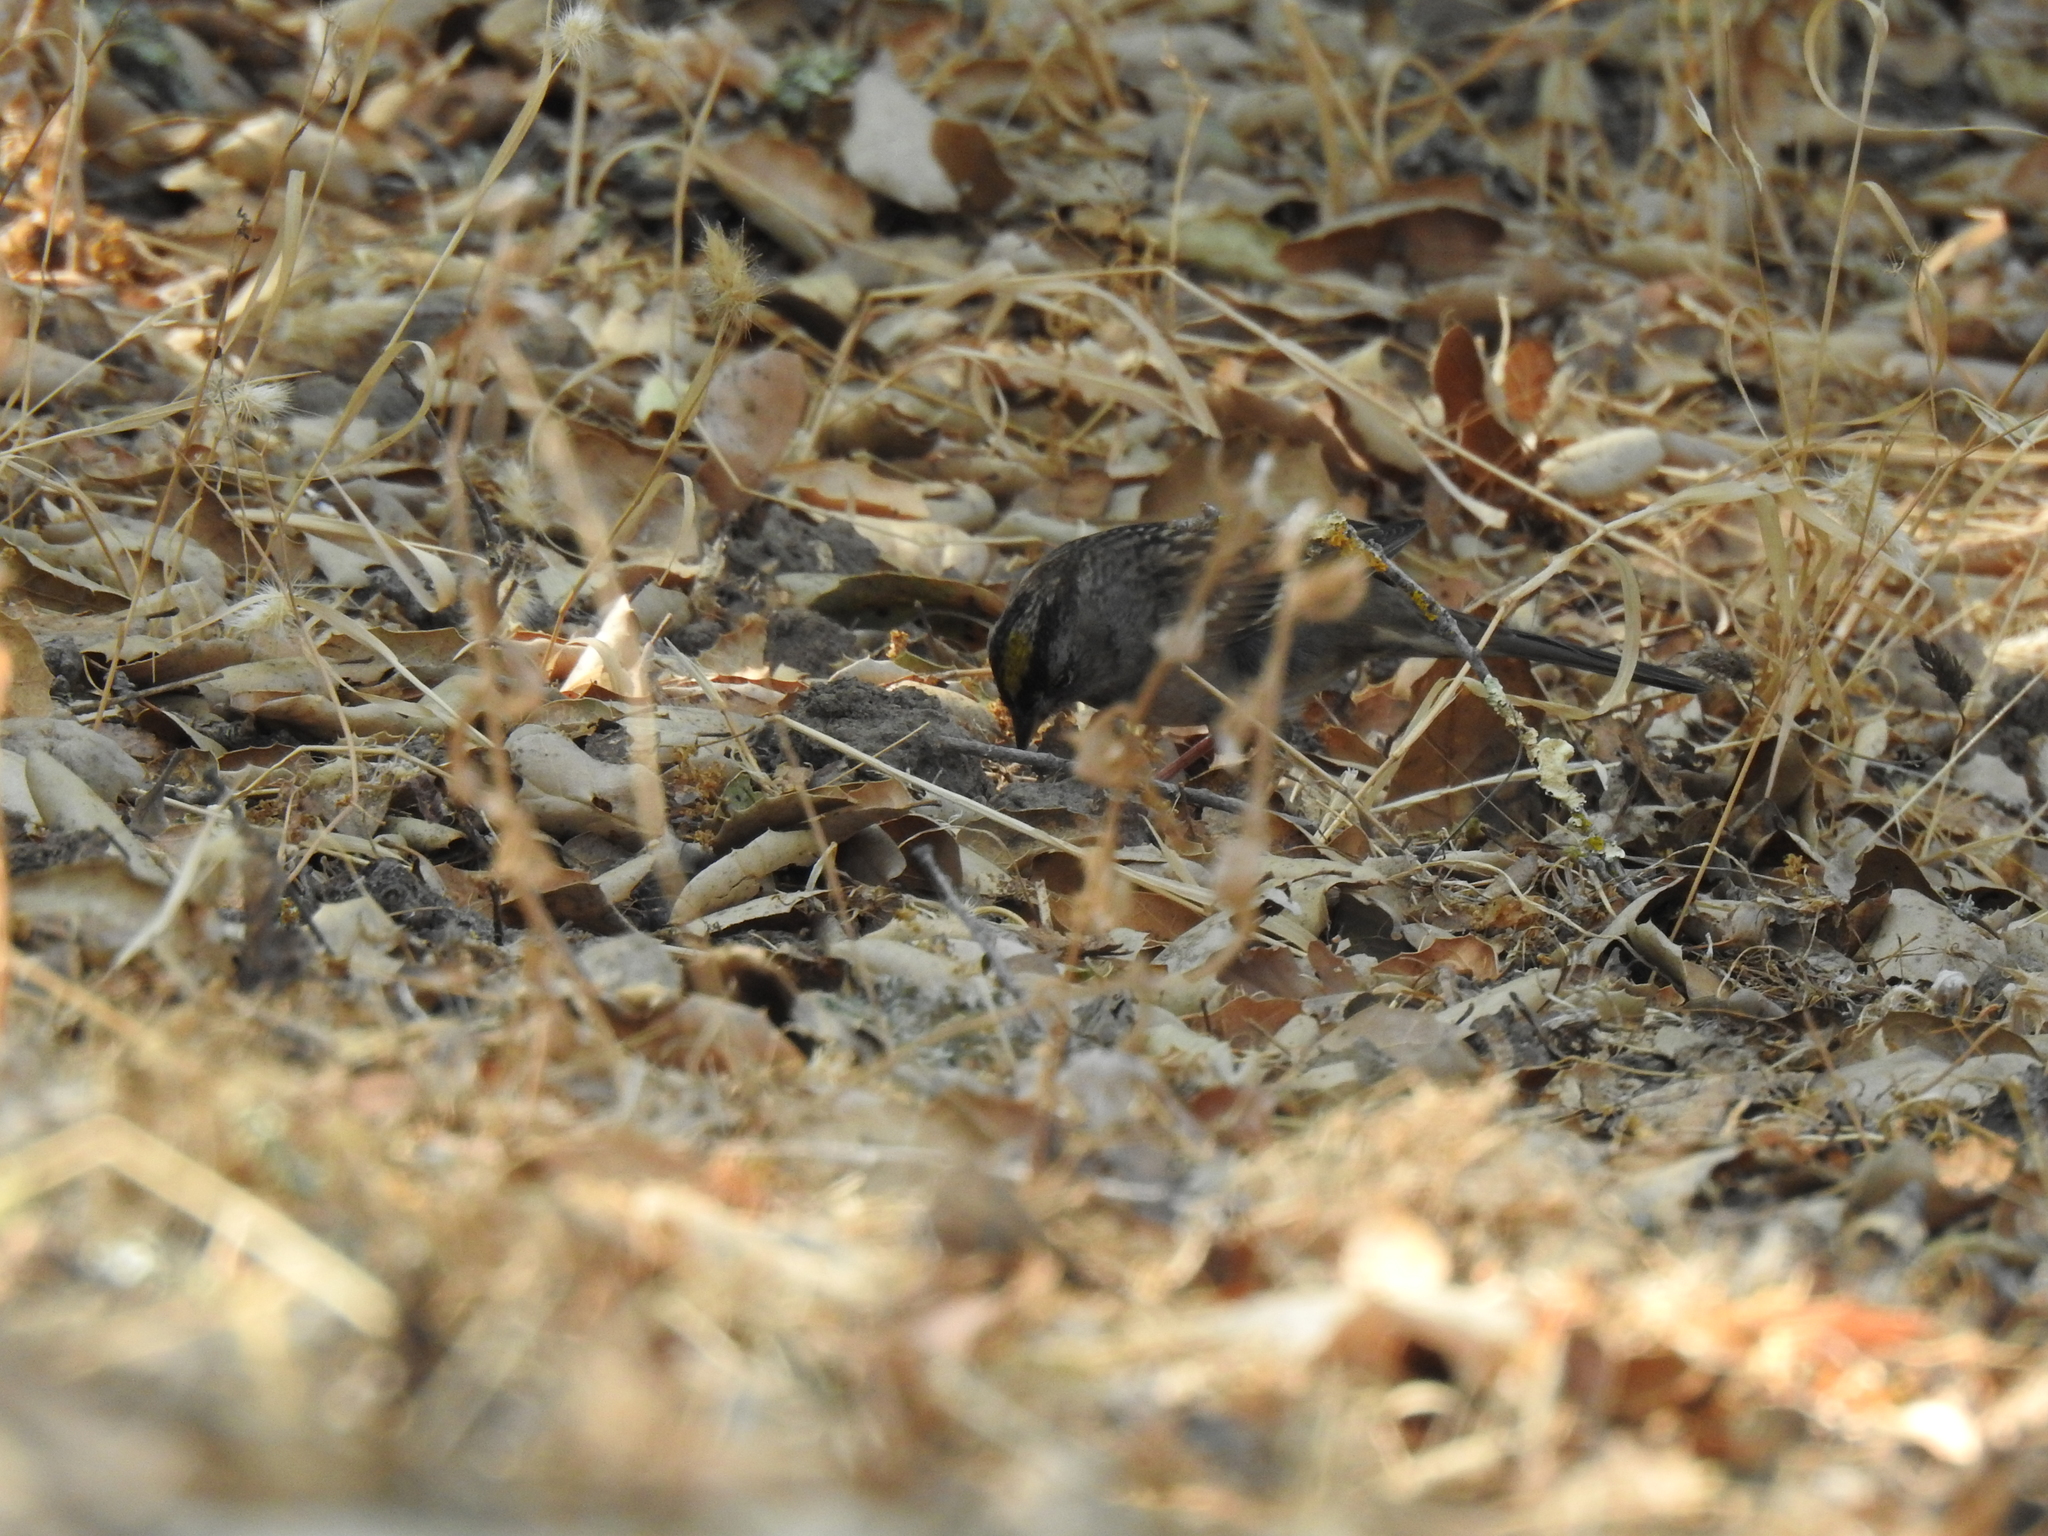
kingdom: Animalia
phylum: Chordata
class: Aves
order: Passeriformes
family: Passerellidae
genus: Zonotrichia
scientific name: Zonotrichia atricapilla
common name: Golden-crowned sparrow
